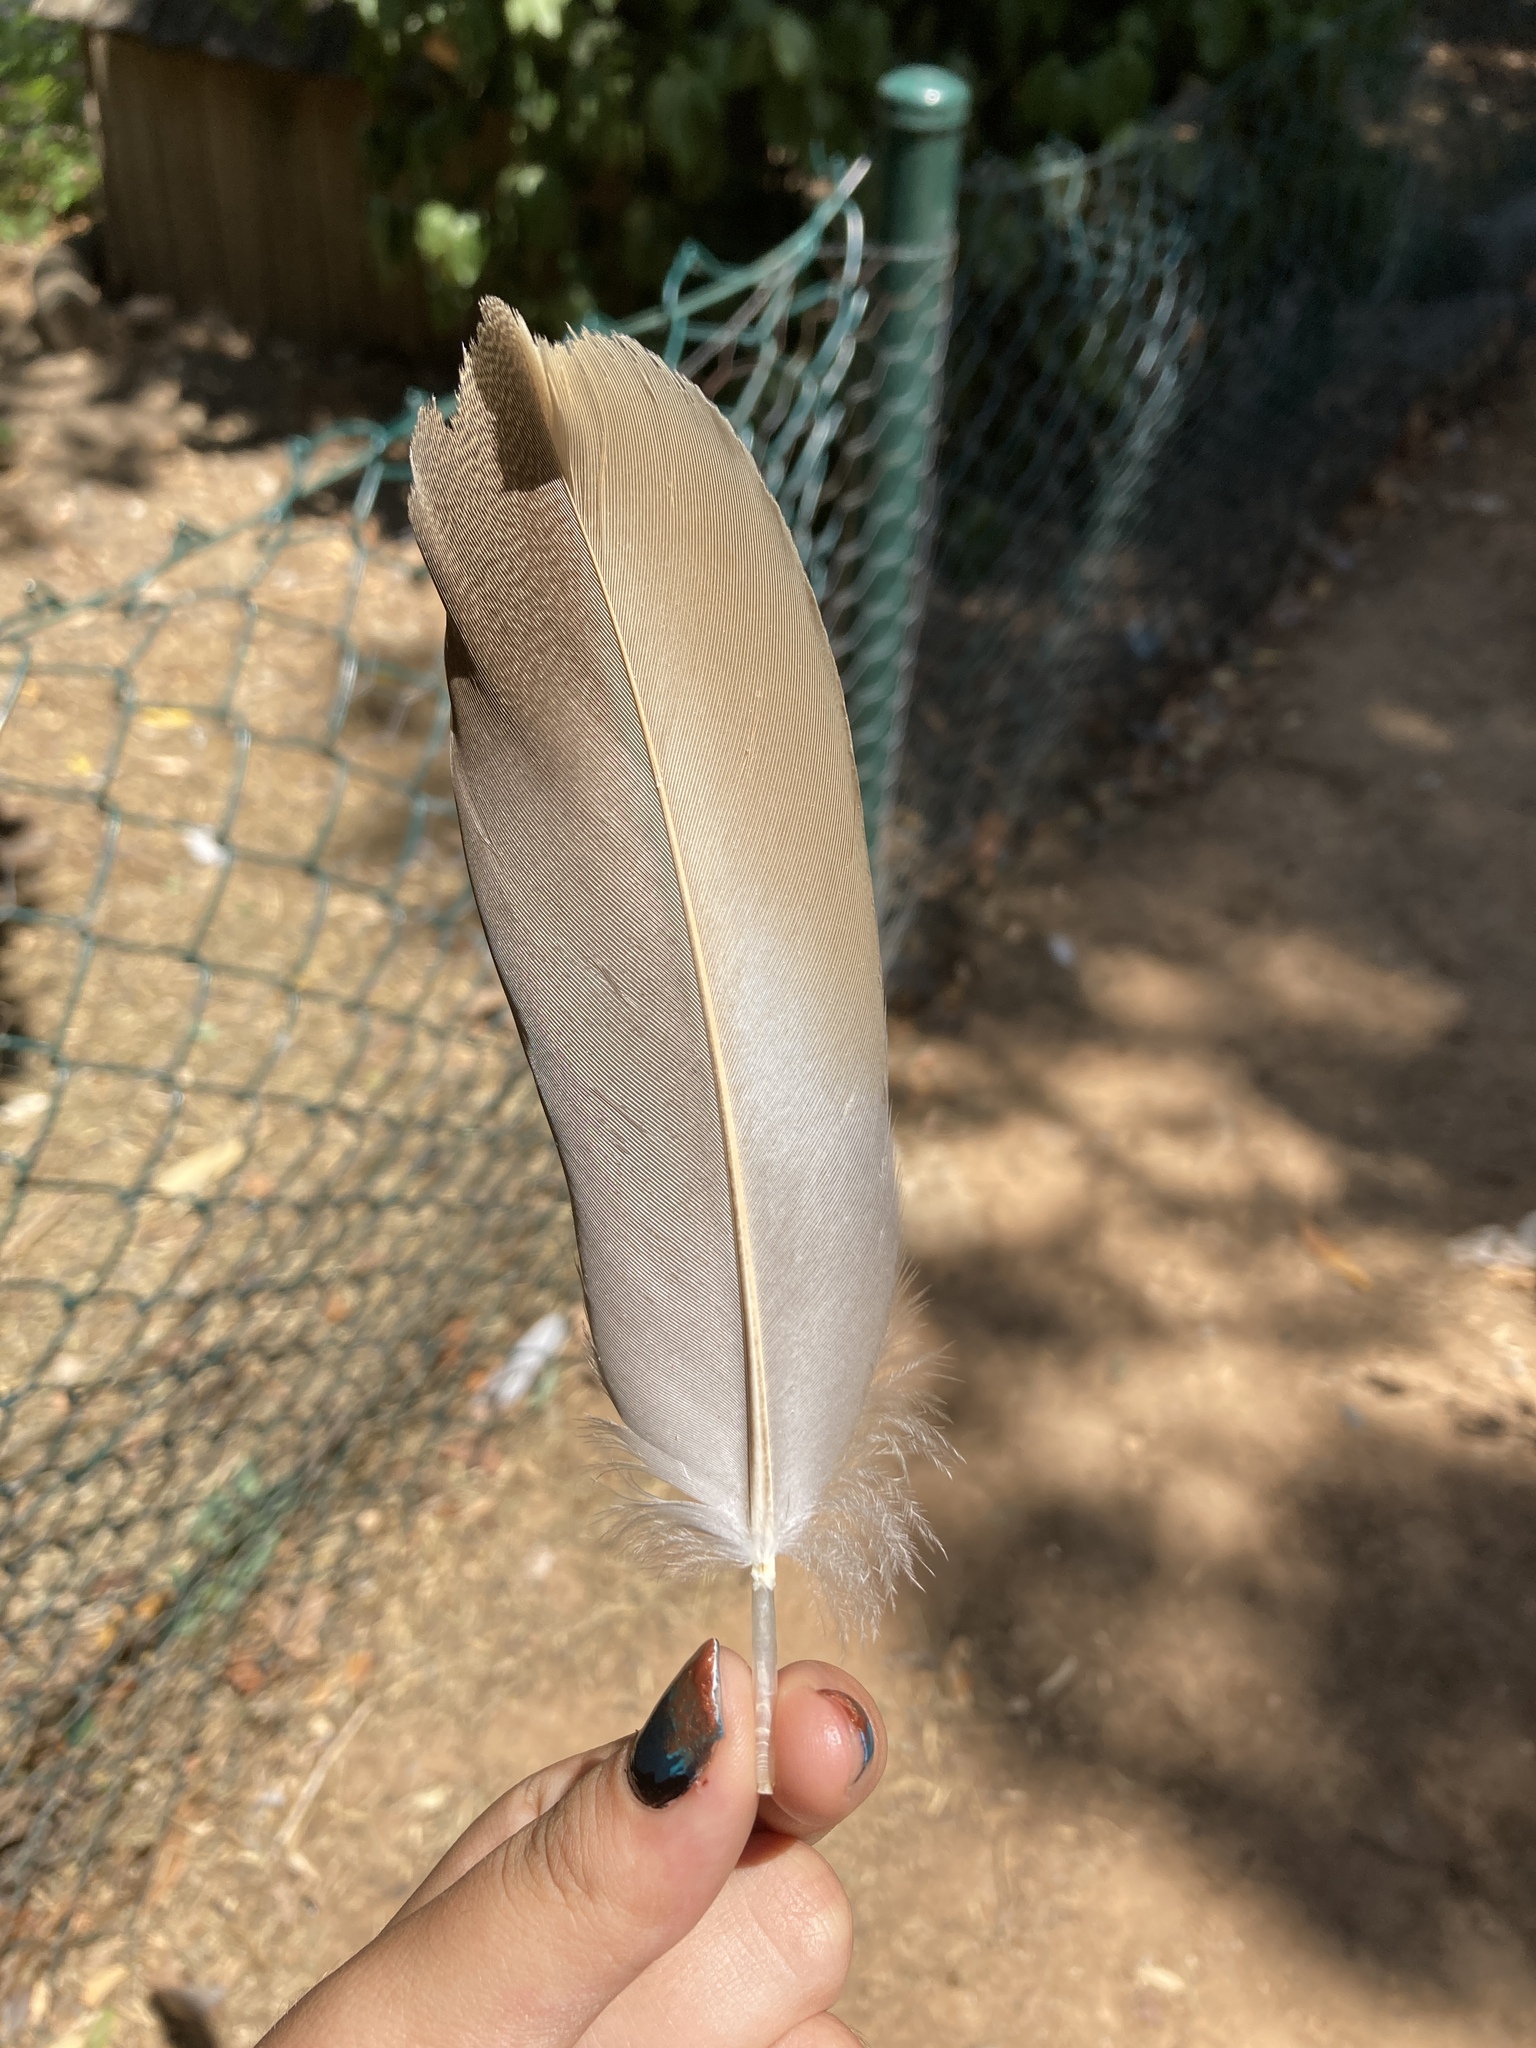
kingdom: Animalia
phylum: Chordata
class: Aves
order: Anseriformes
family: Anatidae
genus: Tadorna
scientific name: Tadorna ferruginea
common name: Ruddy shelduck
